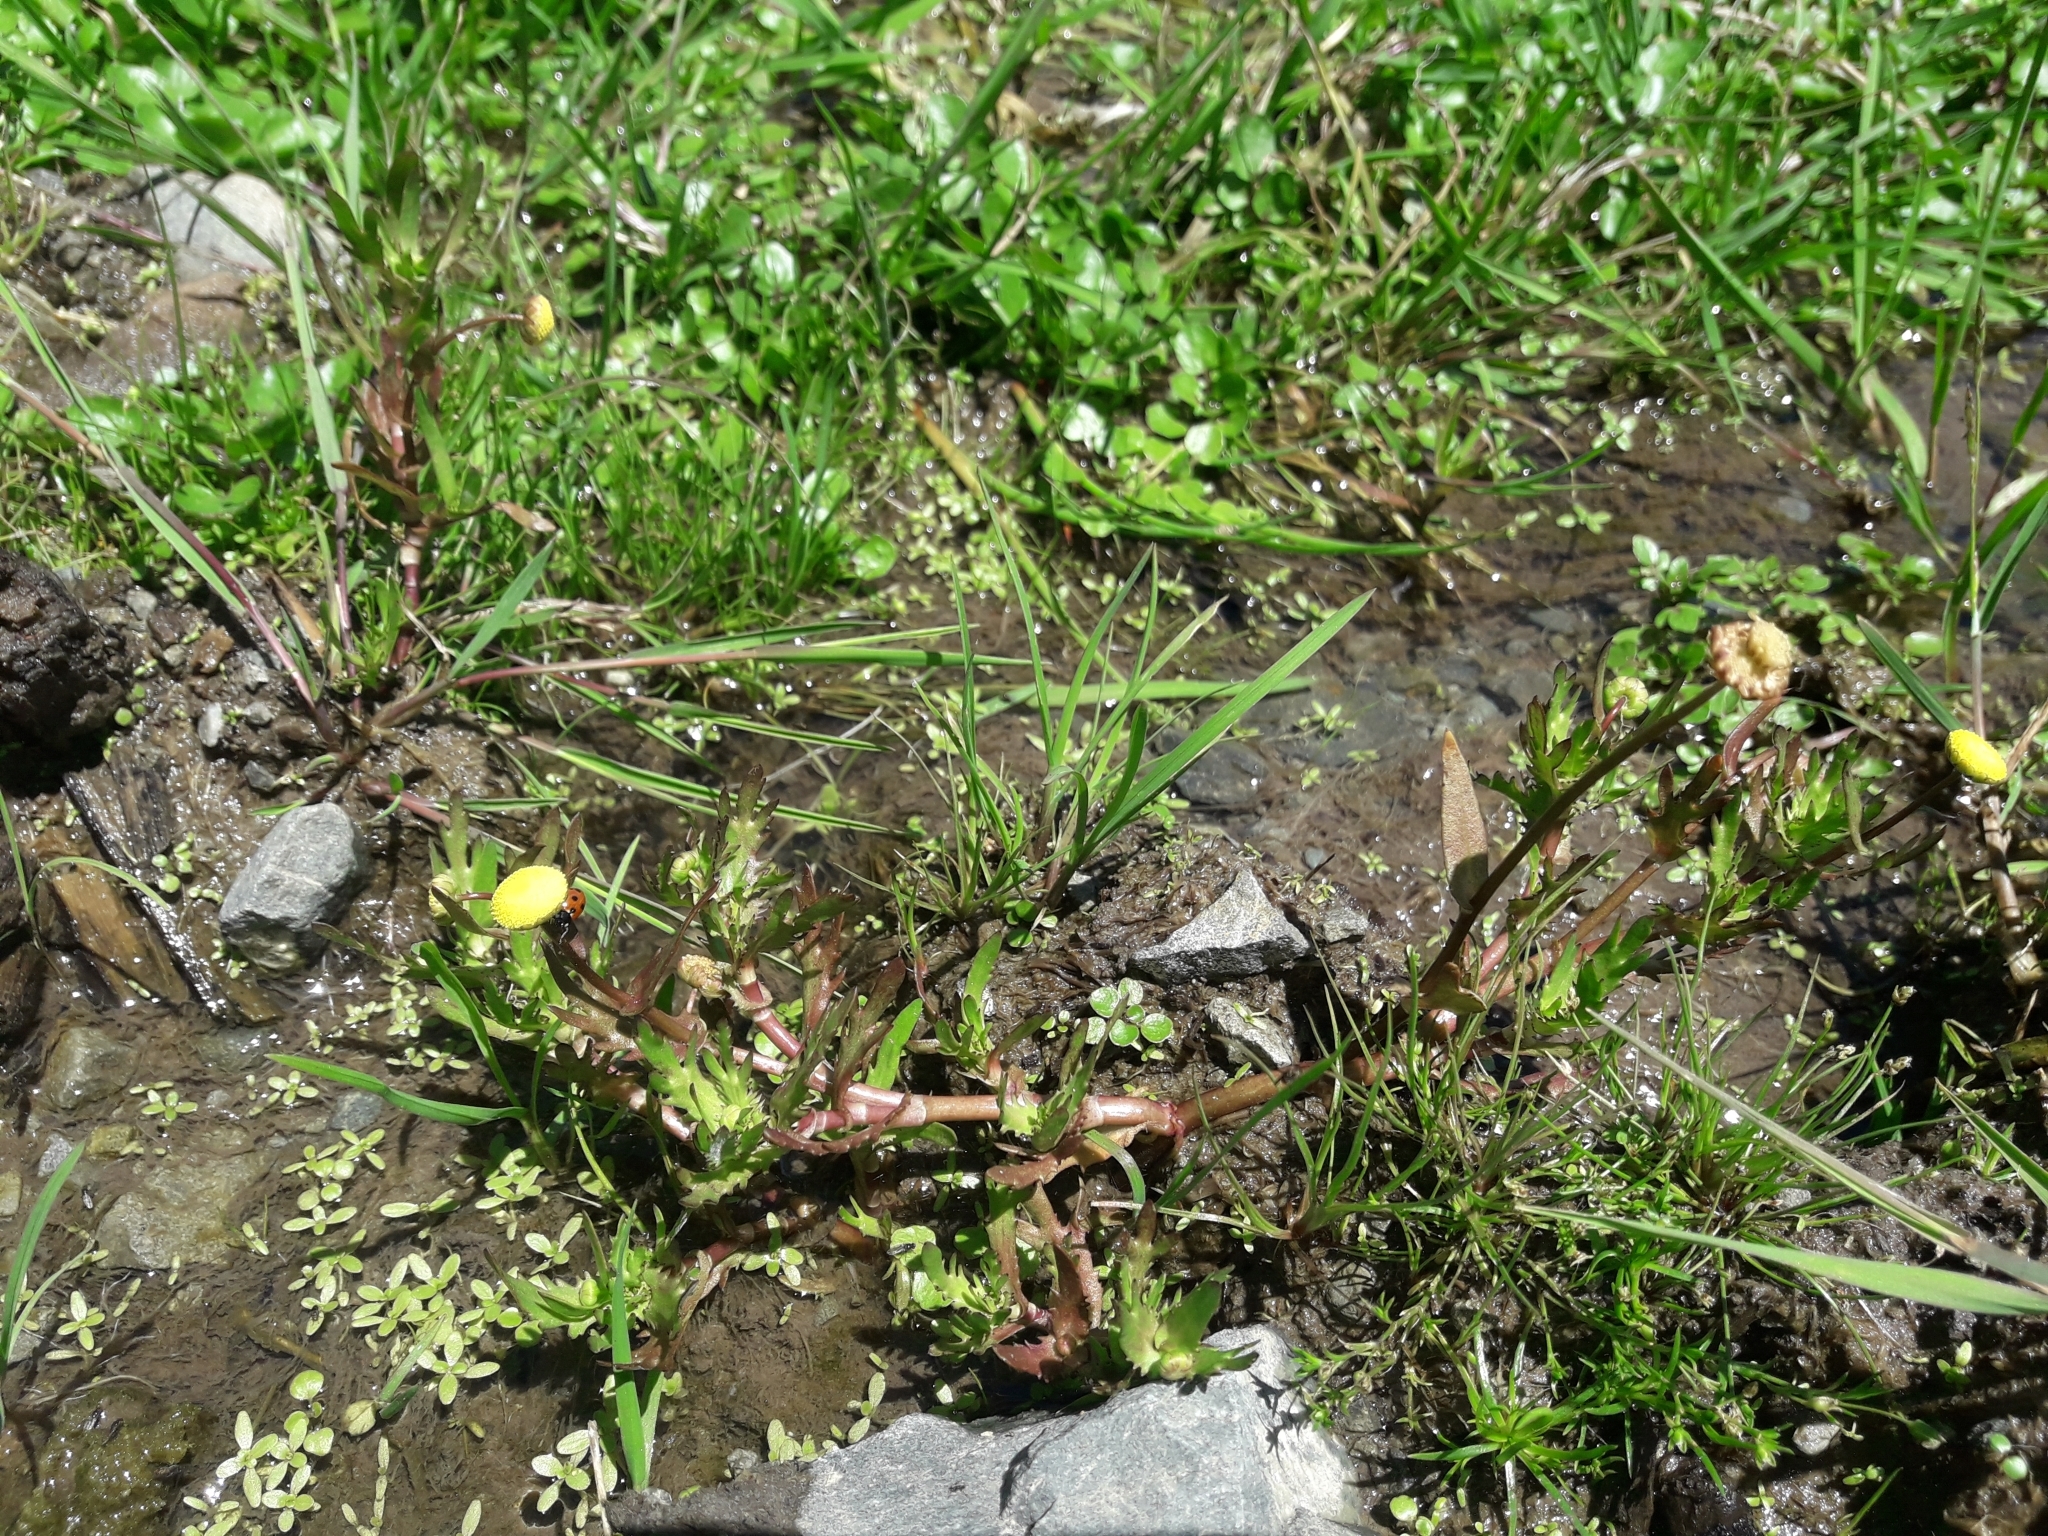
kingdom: Plantae
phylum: Tracheophyta
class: Magnoliopsida
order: Asterales
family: Asteraceae
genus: Cotula
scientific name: Cotula coronopifolia
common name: Buttonweed
